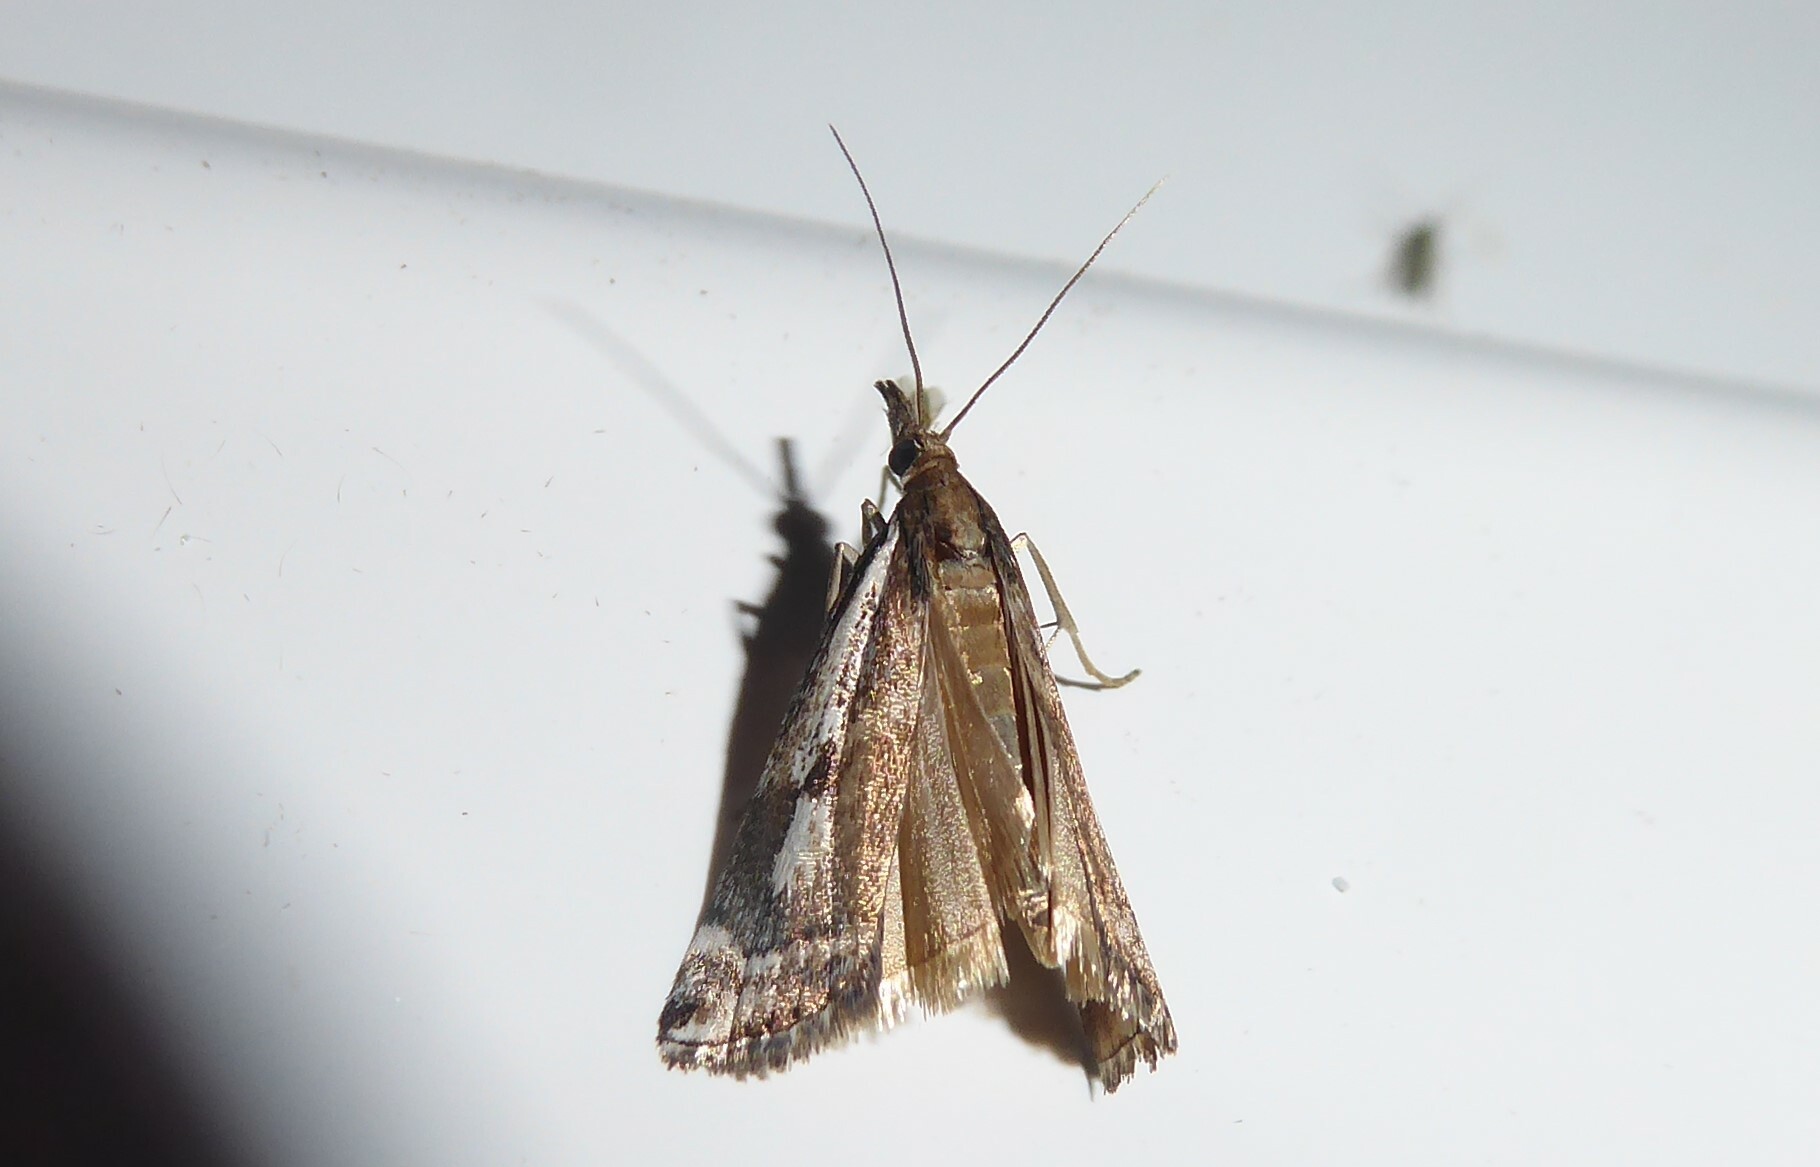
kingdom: Animalia
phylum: Arthropoda
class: Insecta
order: Lepidoptera
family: Crambidae
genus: Orocrambus
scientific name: Orocrambus vulgaris
